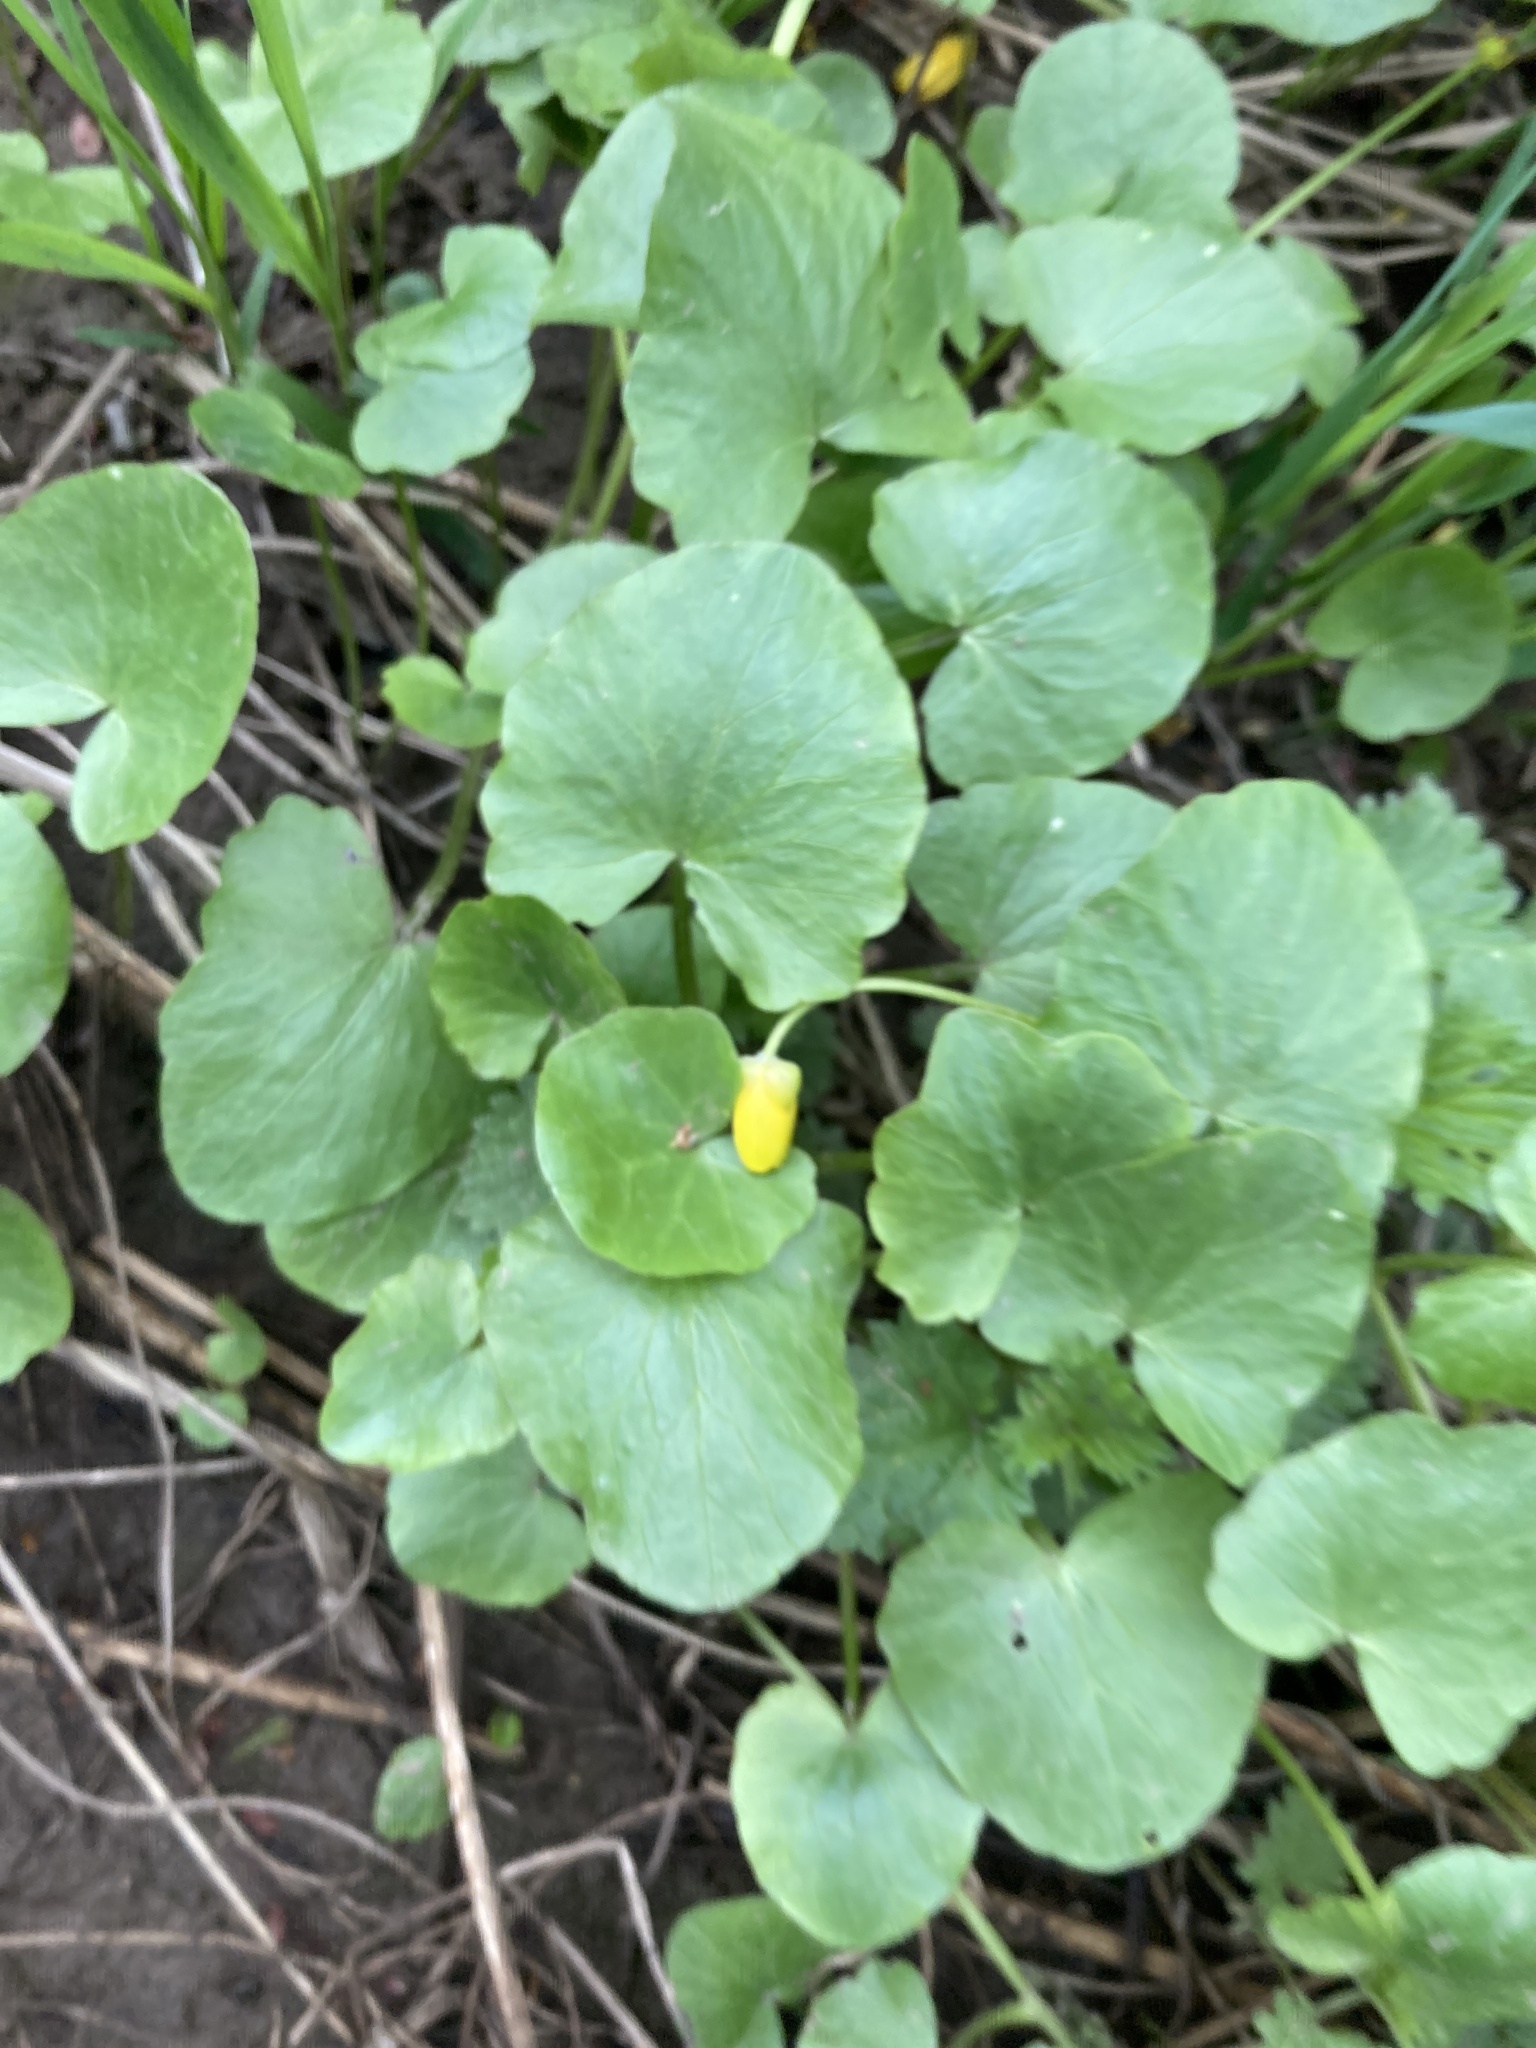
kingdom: Plantae
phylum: Tracheophyta
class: Magnoliopsida
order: Ranunculales
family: Ranunculaceae
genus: Ficaria
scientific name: Ficaria verna
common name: Lesser celandine
